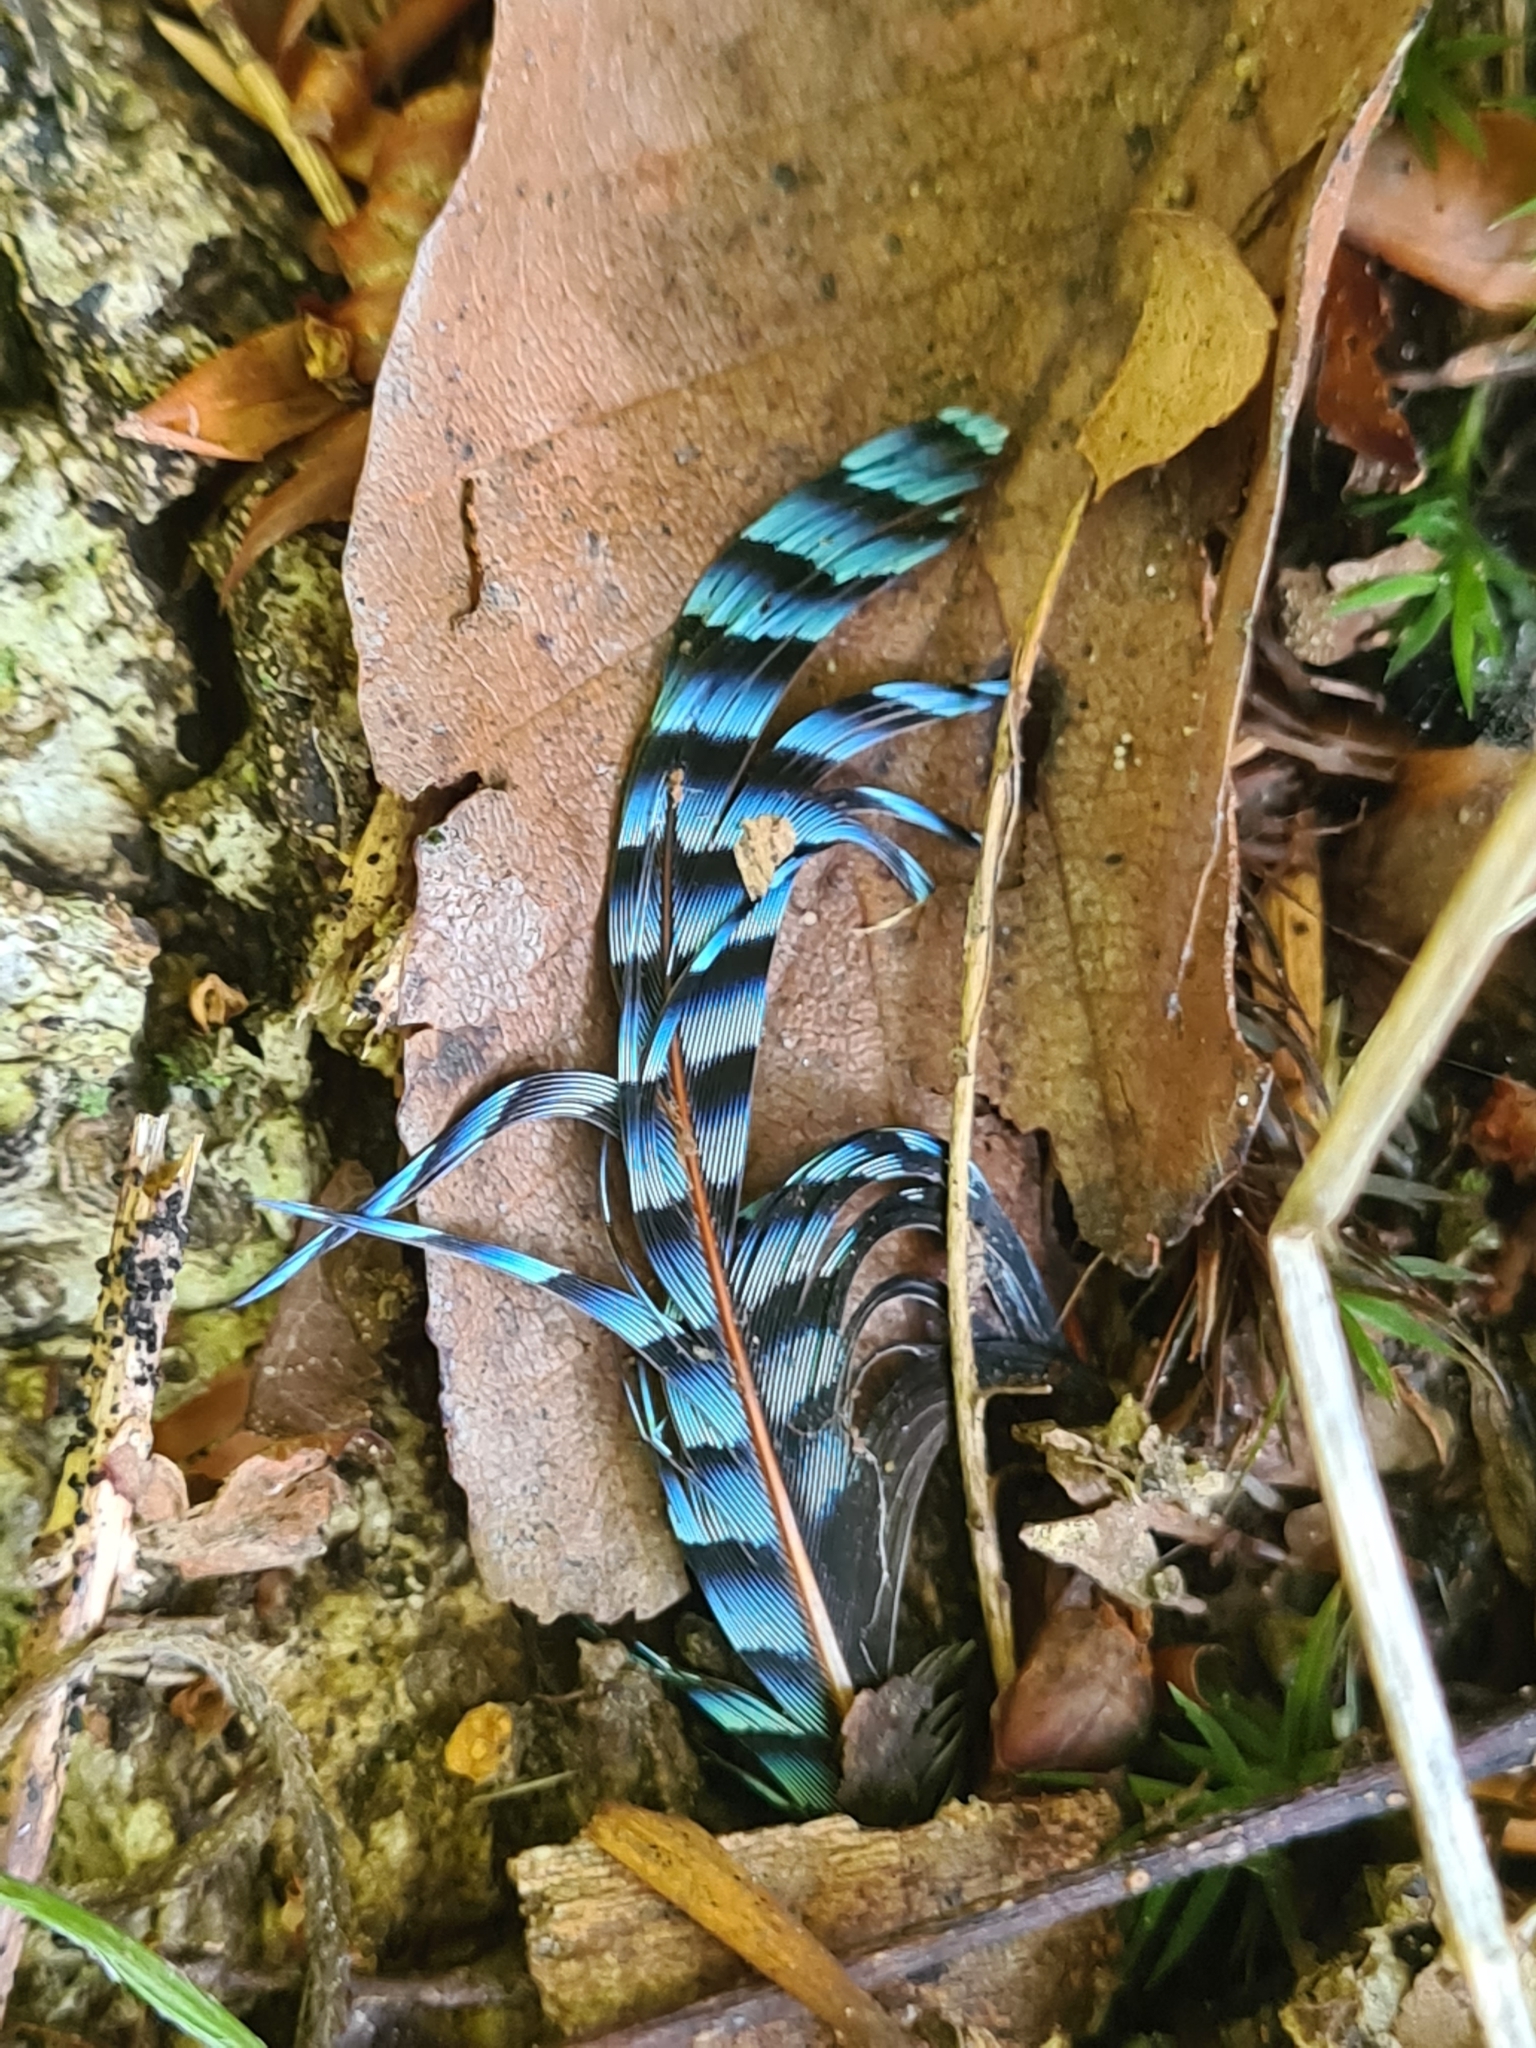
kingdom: Animalia
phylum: Chordata
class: Aves
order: Passeriformes
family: Corvidae
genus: Garrulus
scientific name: Garrulus glandarius
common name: Eurasian jay
